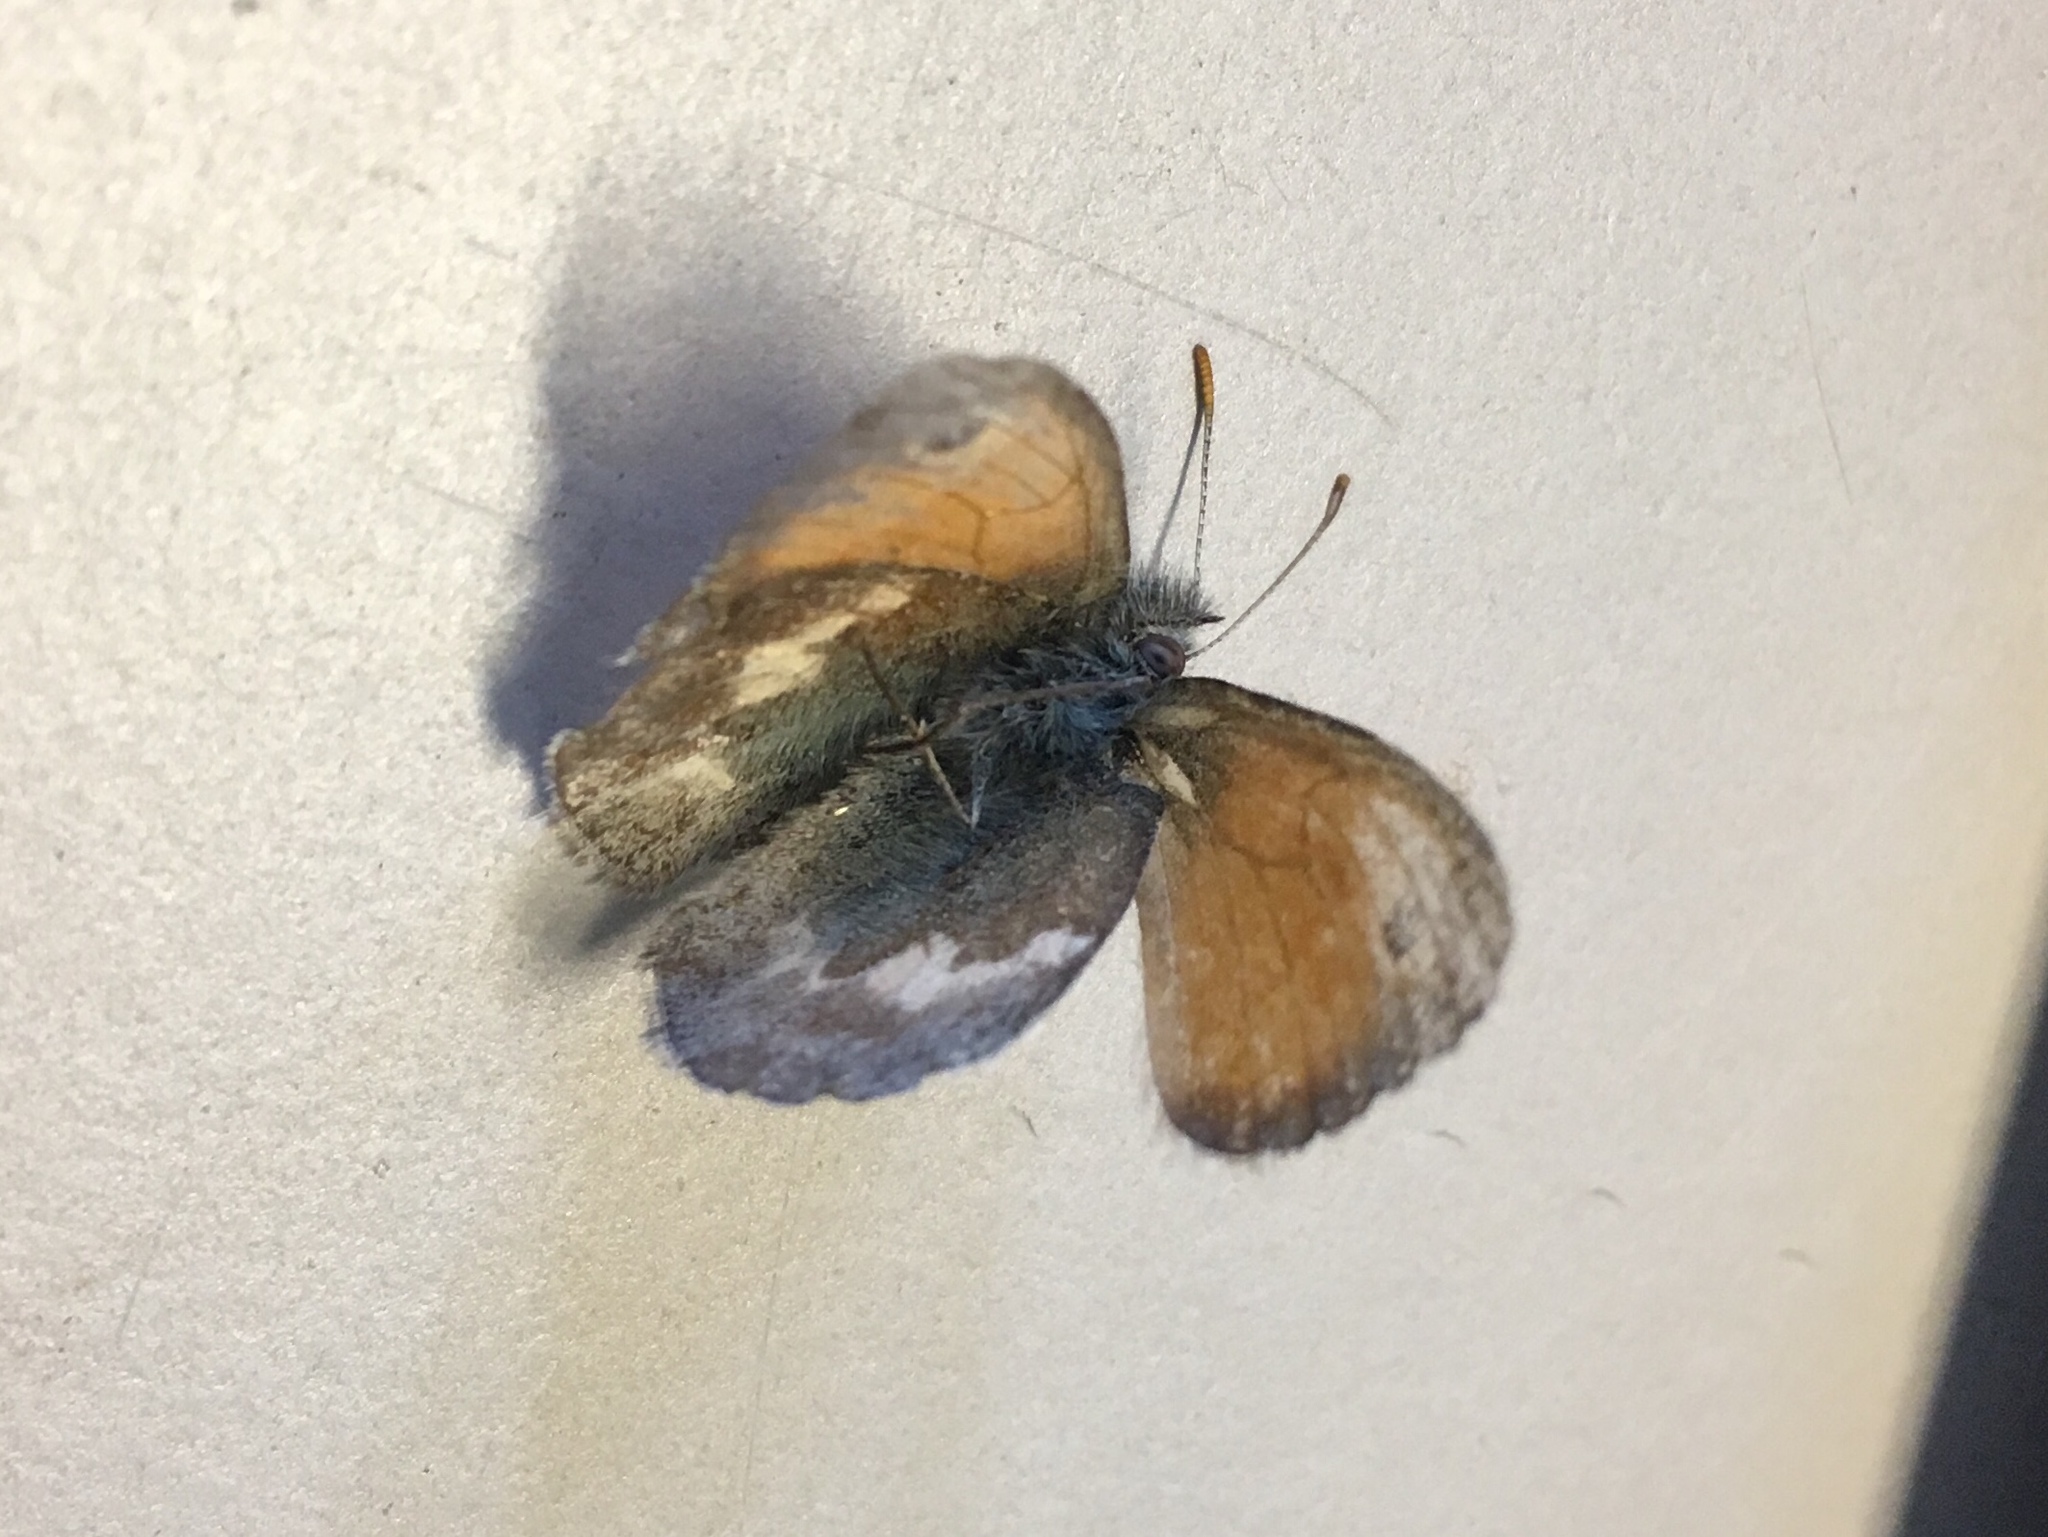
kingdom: Animalia
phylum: Arthropoda
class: Insecta
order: Lepidoptera
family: Nymphalidae
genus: Coenonympha
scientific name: Coenonympha pamphilus
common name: Small heath
